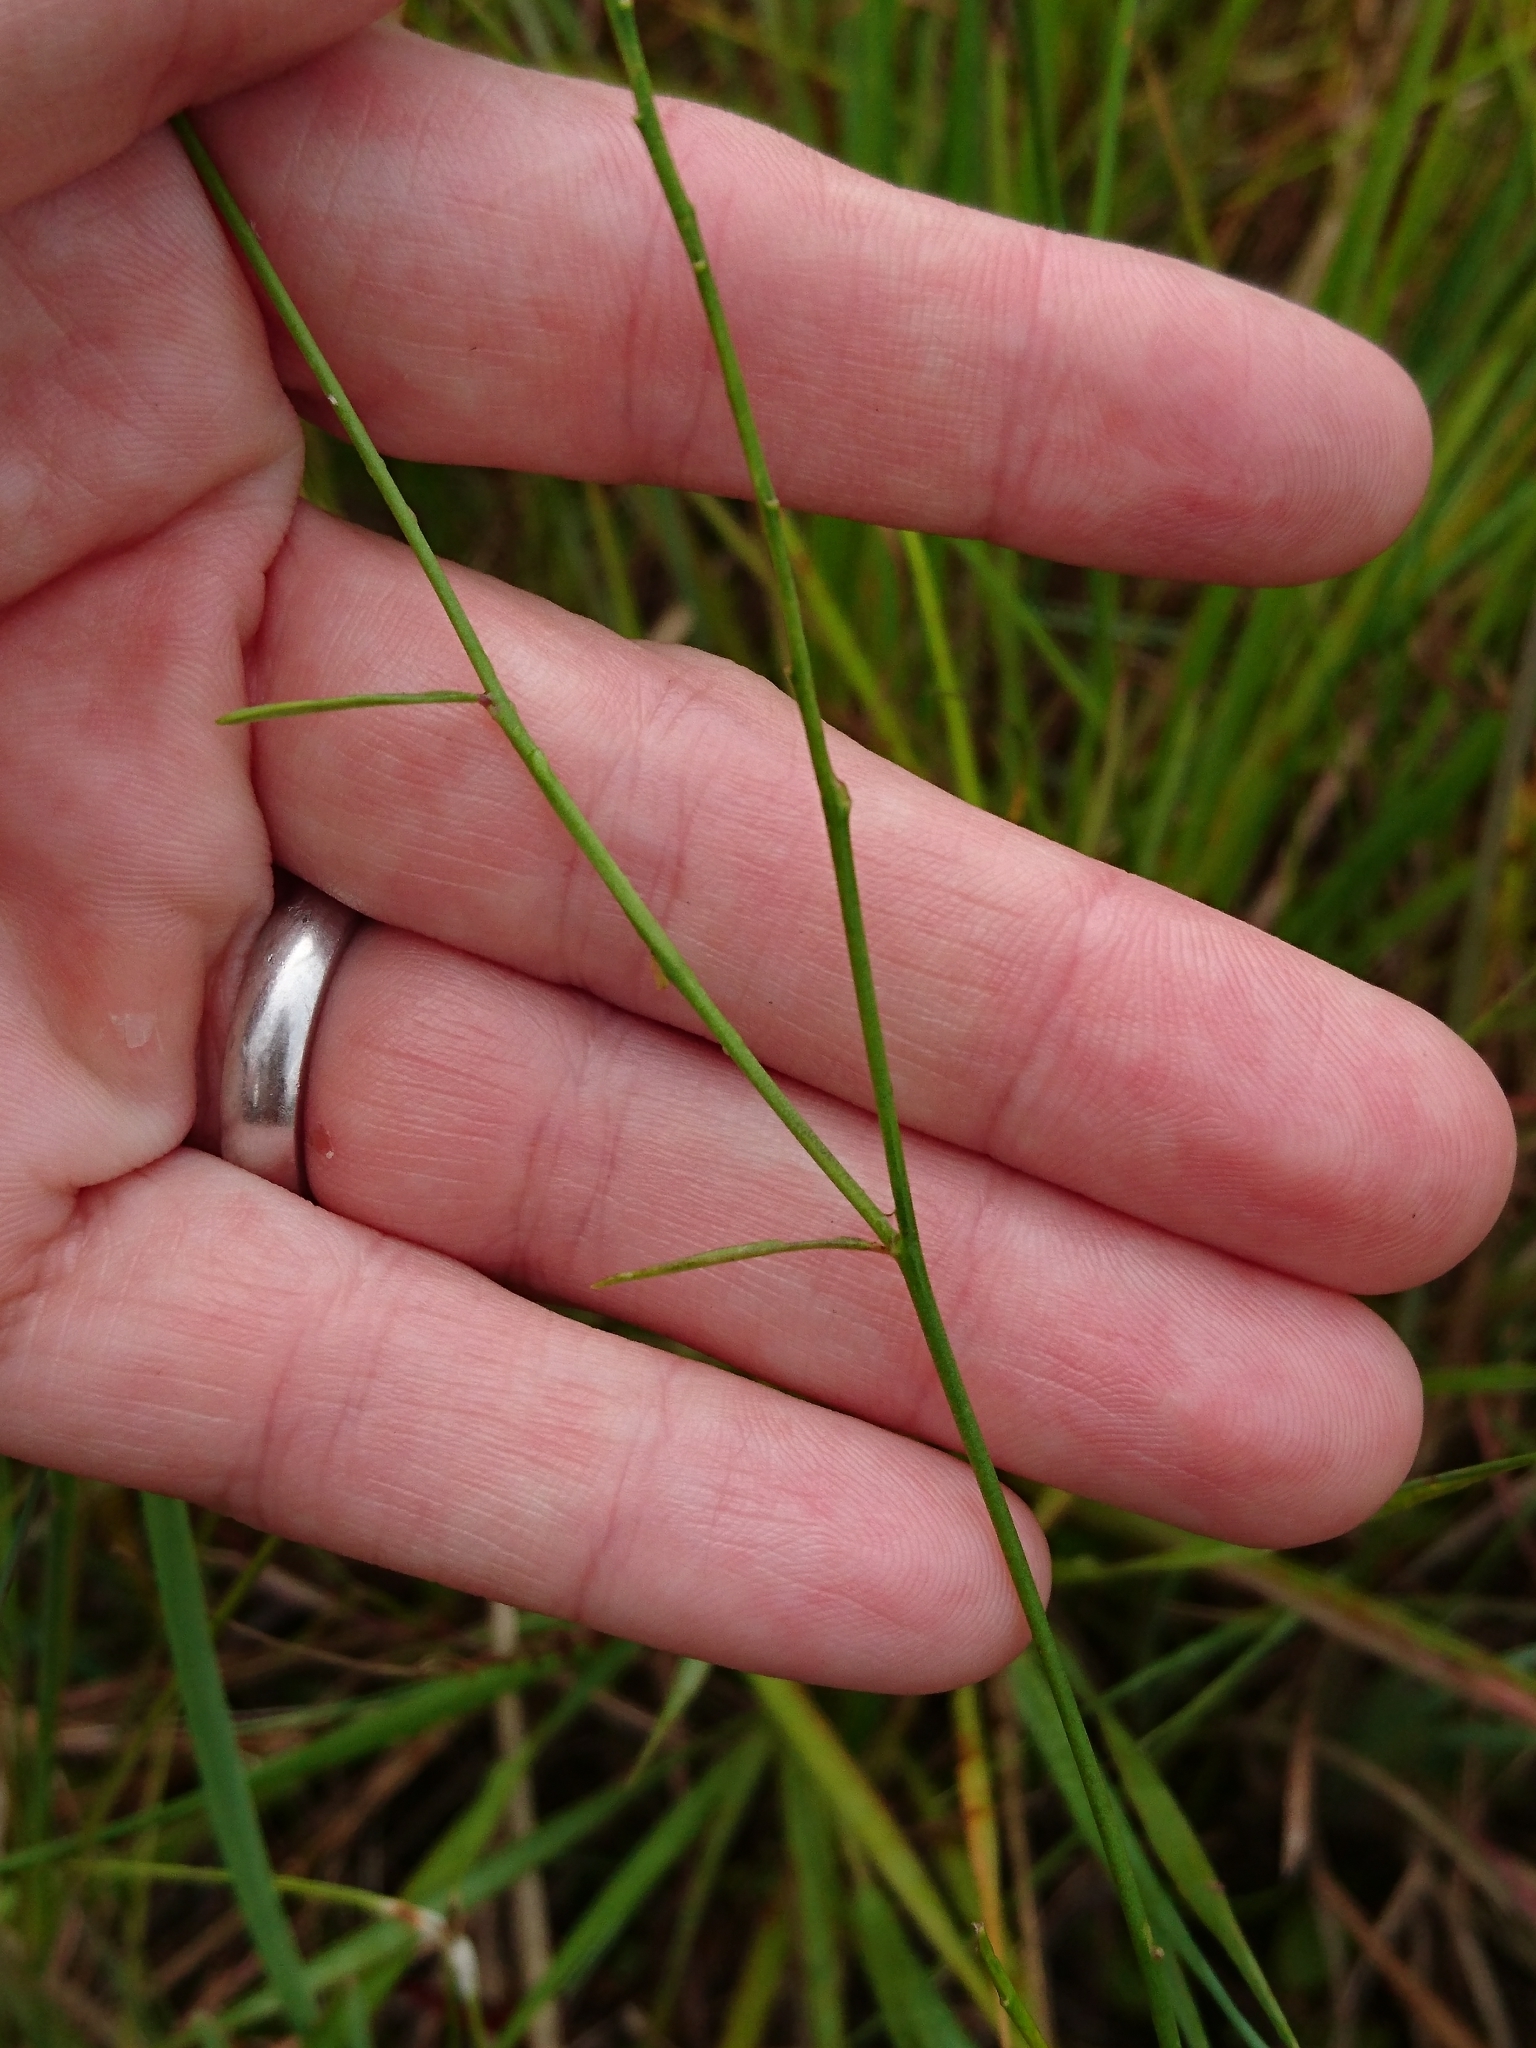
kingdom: Plantae
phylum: Tracheophyta
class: Magnoliopsida
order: Fabales
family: Polygalaceae
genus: Asemeia
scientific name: Asemeia grandiflora
